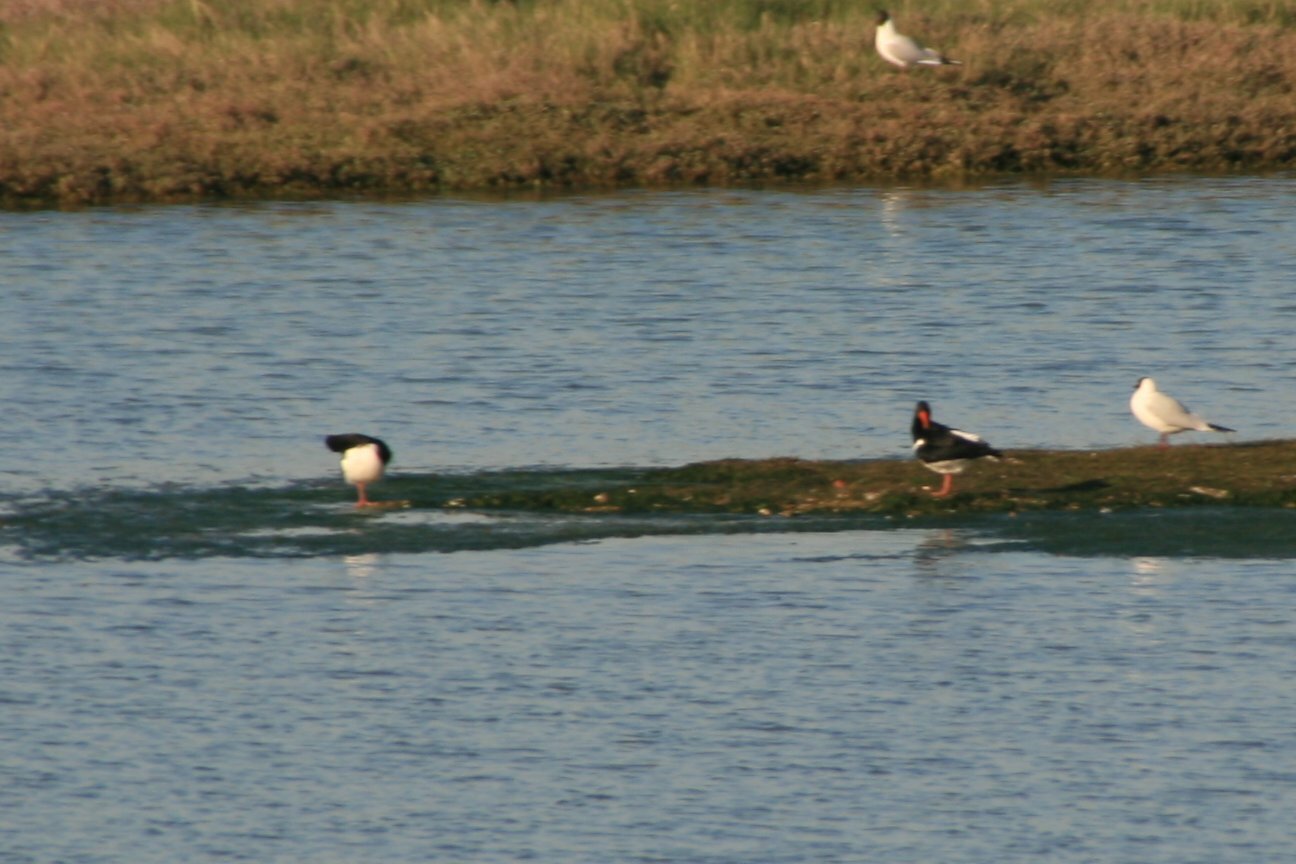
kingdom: Animalia
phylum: Chordata
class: Aves
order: Charadriiformes
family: Haematopodidae
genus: Haematopus
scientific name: Haematopus ostralegus
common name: Eurasian oystercatcher
